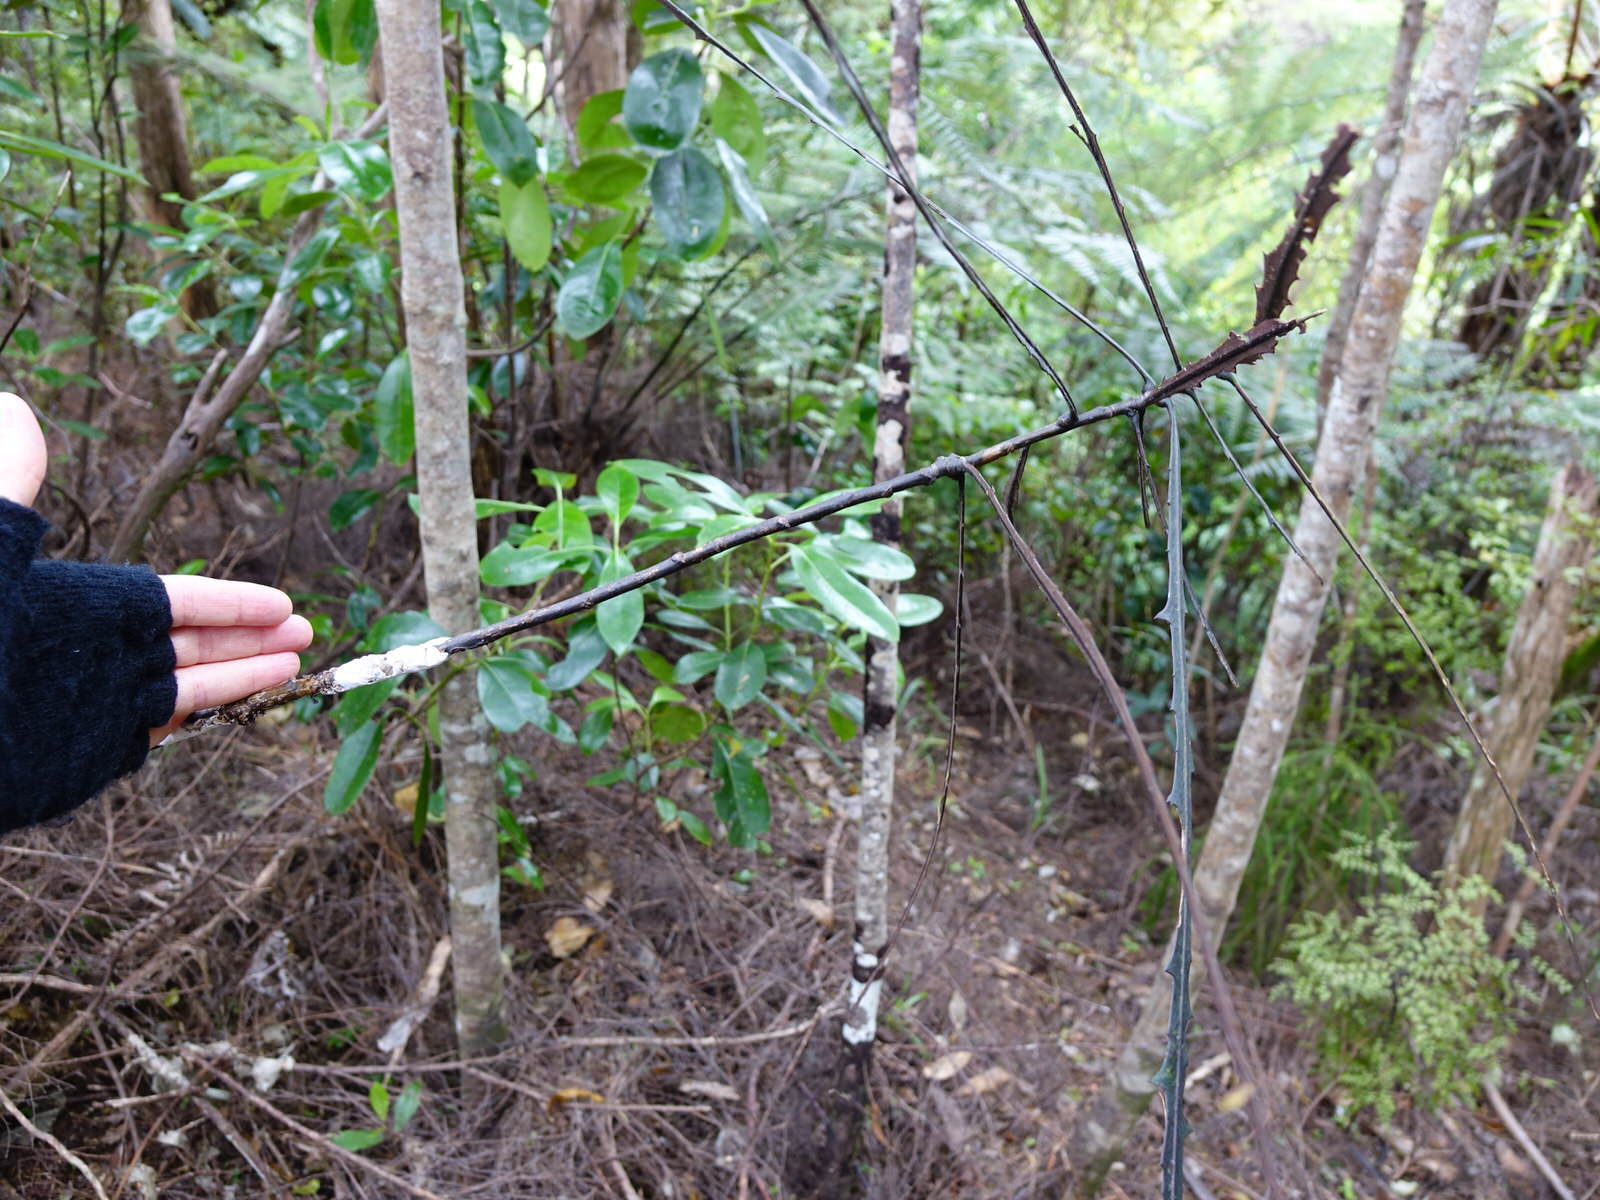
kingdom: Fungi
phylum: Basidiomycota
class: Pucciniomycetes
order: Septobasidiales
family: Septobasidiaceae
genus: Septobasidium
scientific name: Septobasidium simmondsii
